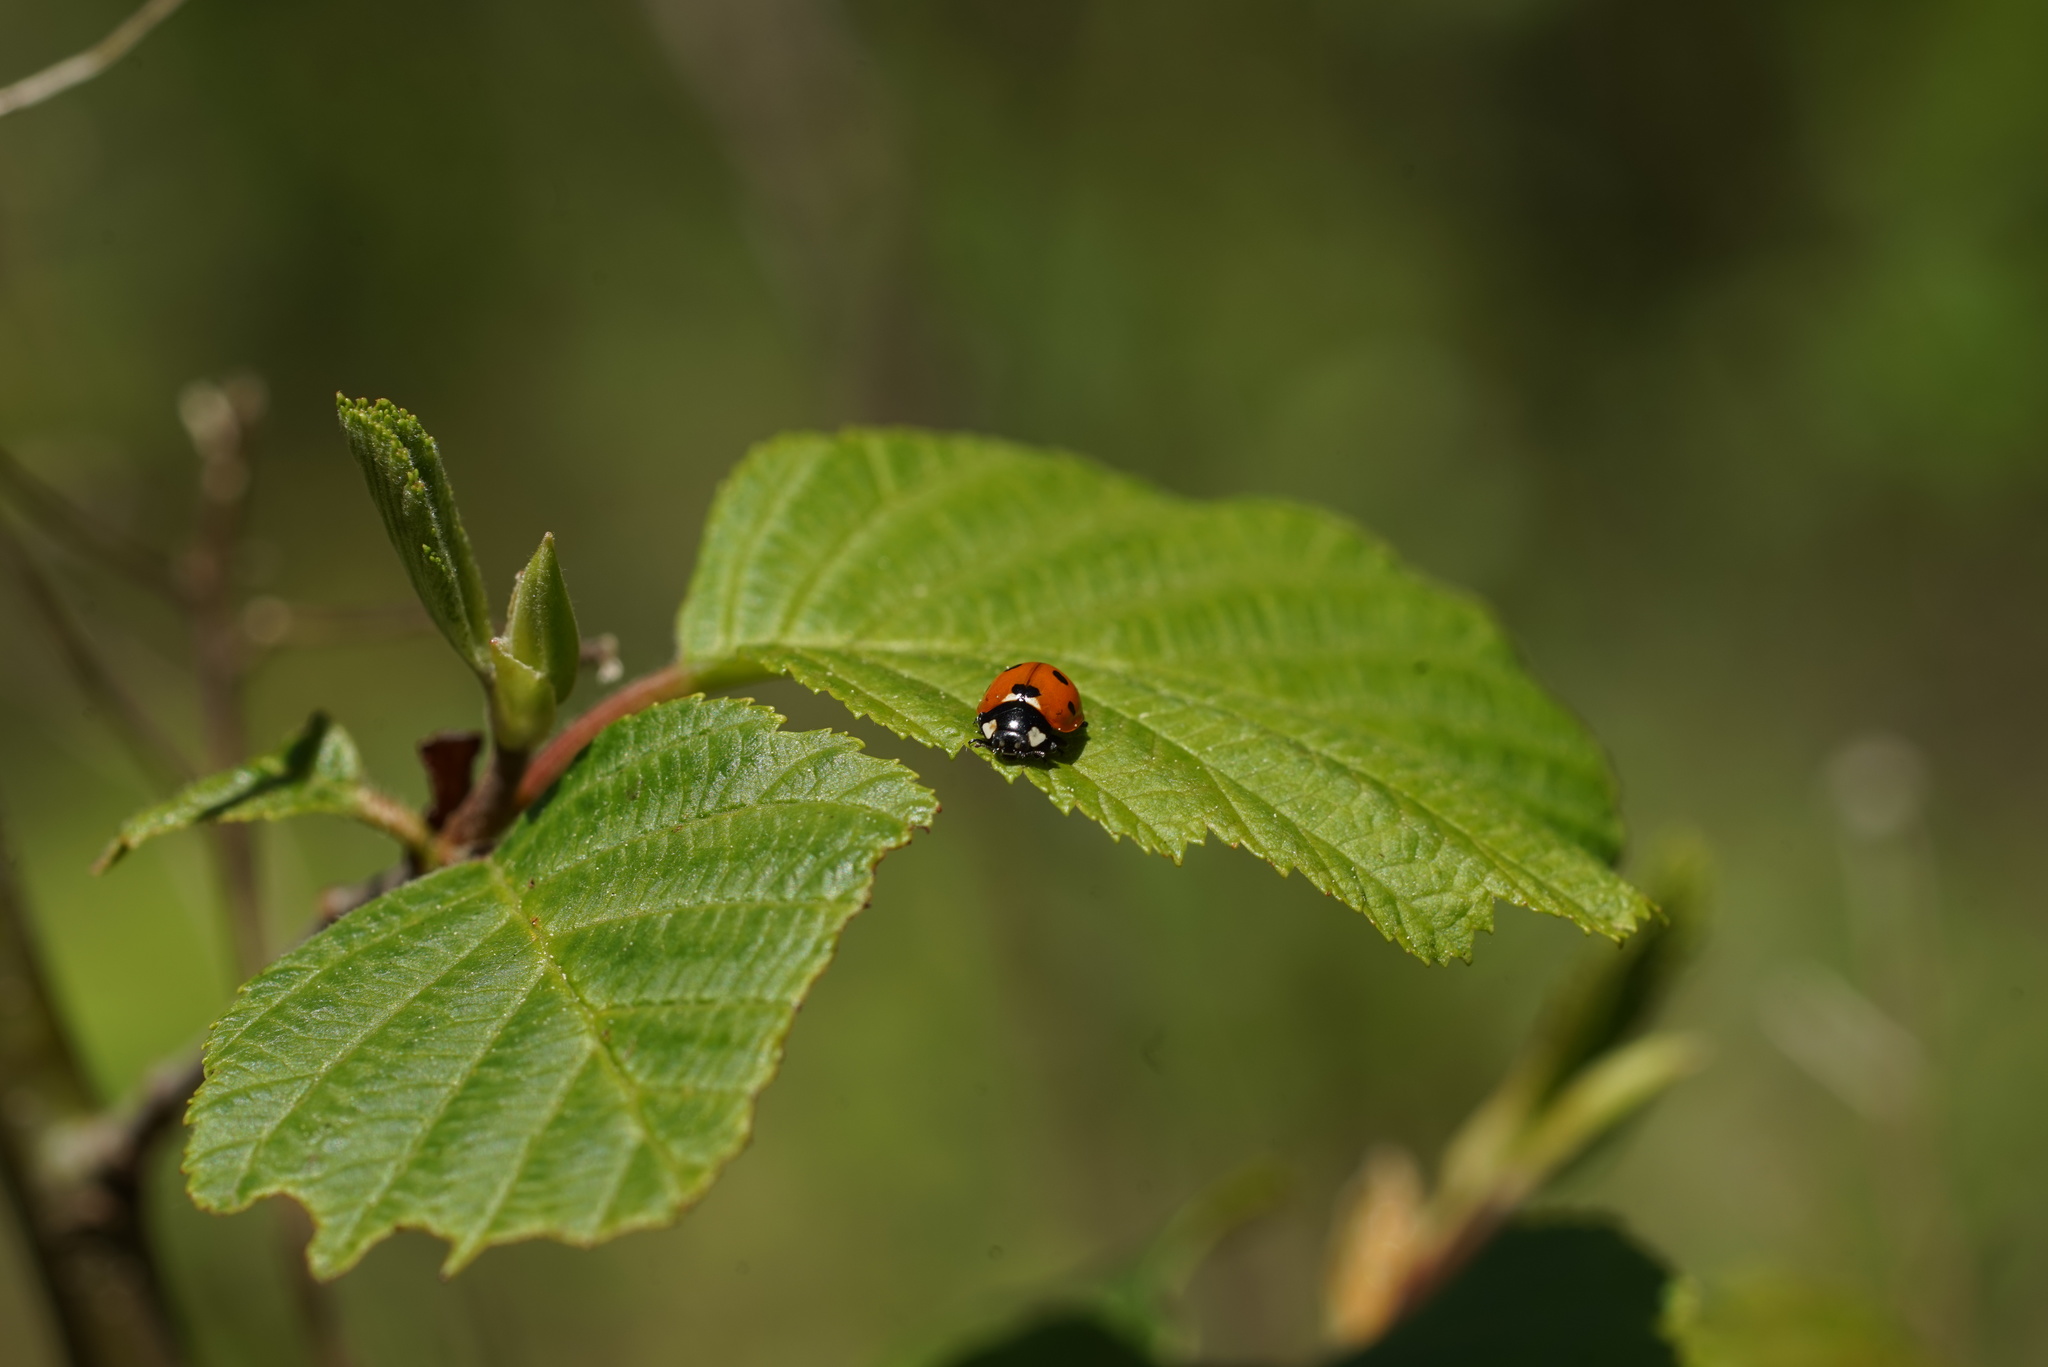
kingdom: Animalia
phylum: Arthropoda
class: Insecta
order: Coleoptera
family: Coccinellidae
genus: Coccinella
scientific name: Coccinella septempunctata
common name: Sevenspotted lady beetle
